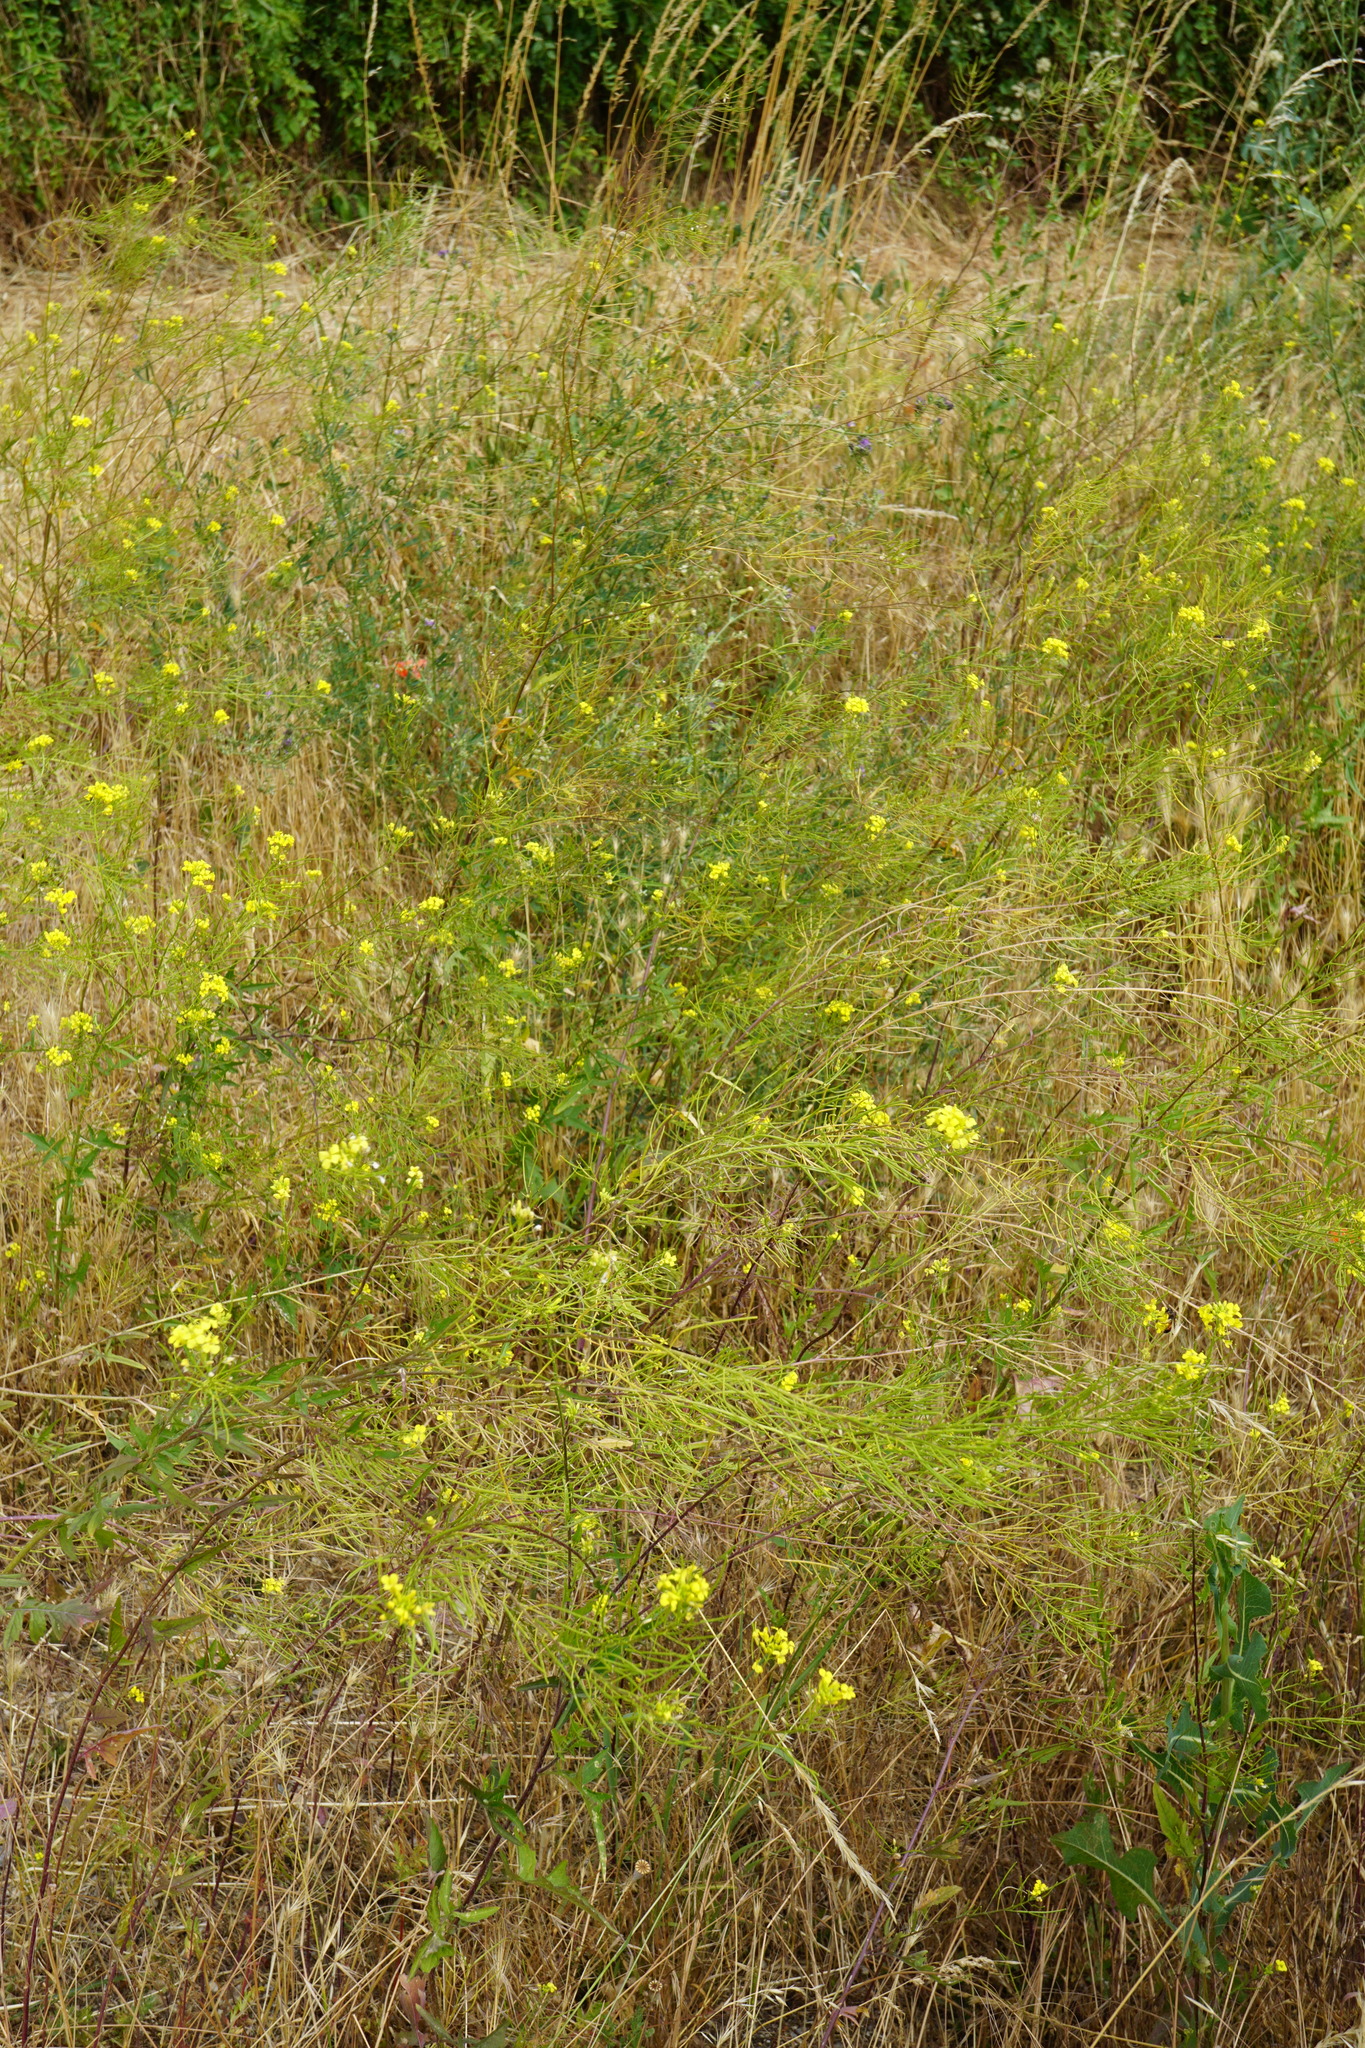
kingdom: Plantae
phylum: Tracheophyta
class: Magnoliopsida
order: Brassicales
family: Brassicaceae
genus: Sisymbrium
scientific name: Sisymbrium loeselii
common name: False london-rocket
